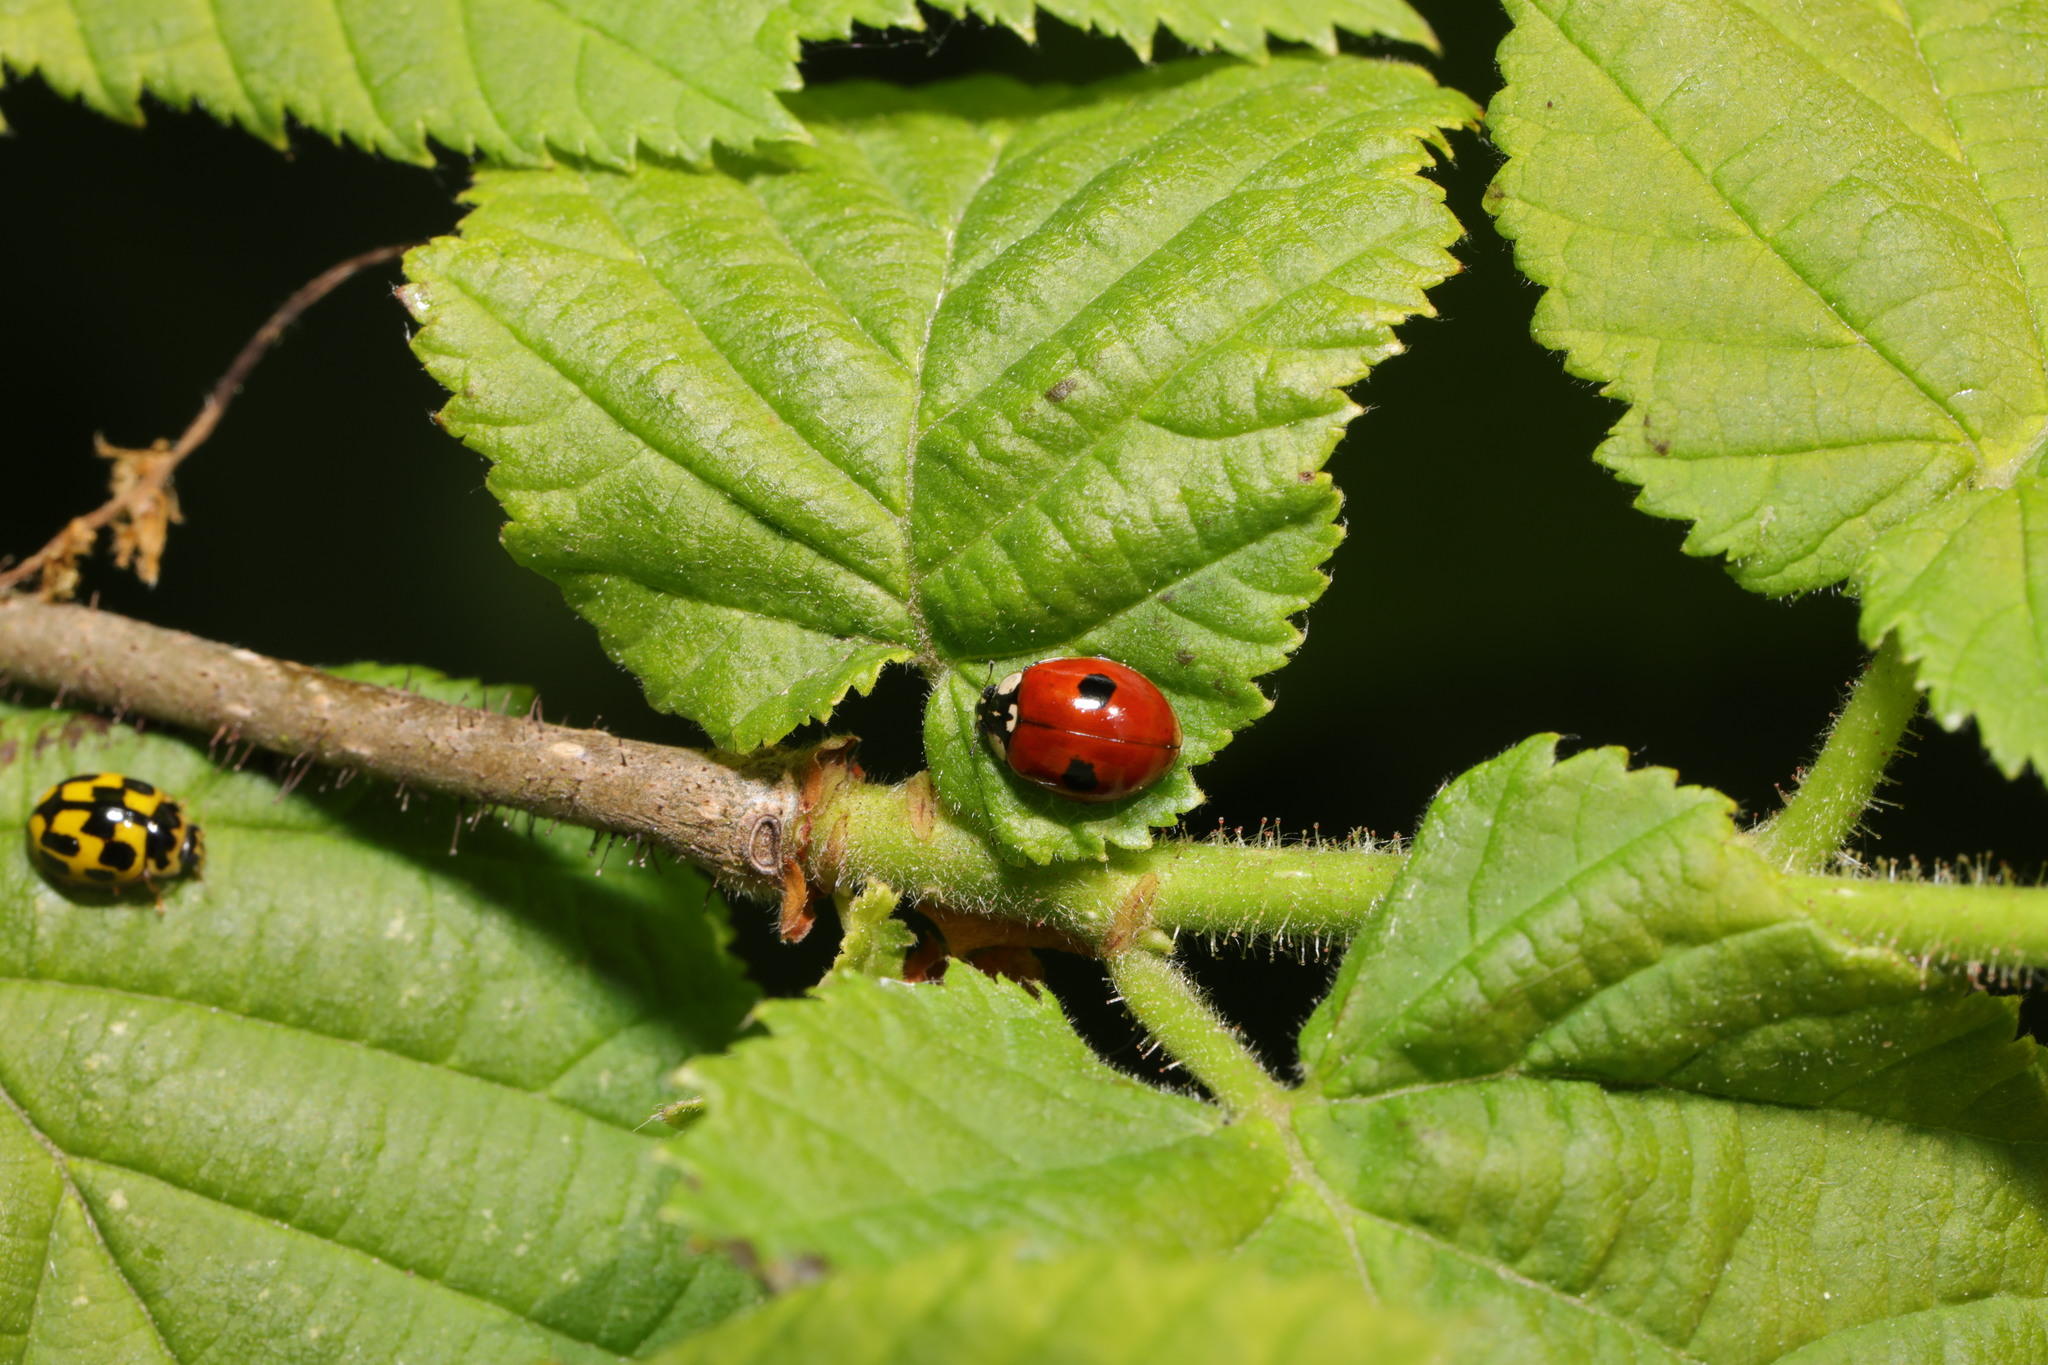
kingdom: Animalia
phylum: Arthropoda
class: Insecta
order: Coleoptera
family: Coccinellidae
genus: Propylaea
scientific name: Propylaea quatuordecimpunctata
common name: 14-spotted ladybird beetle
